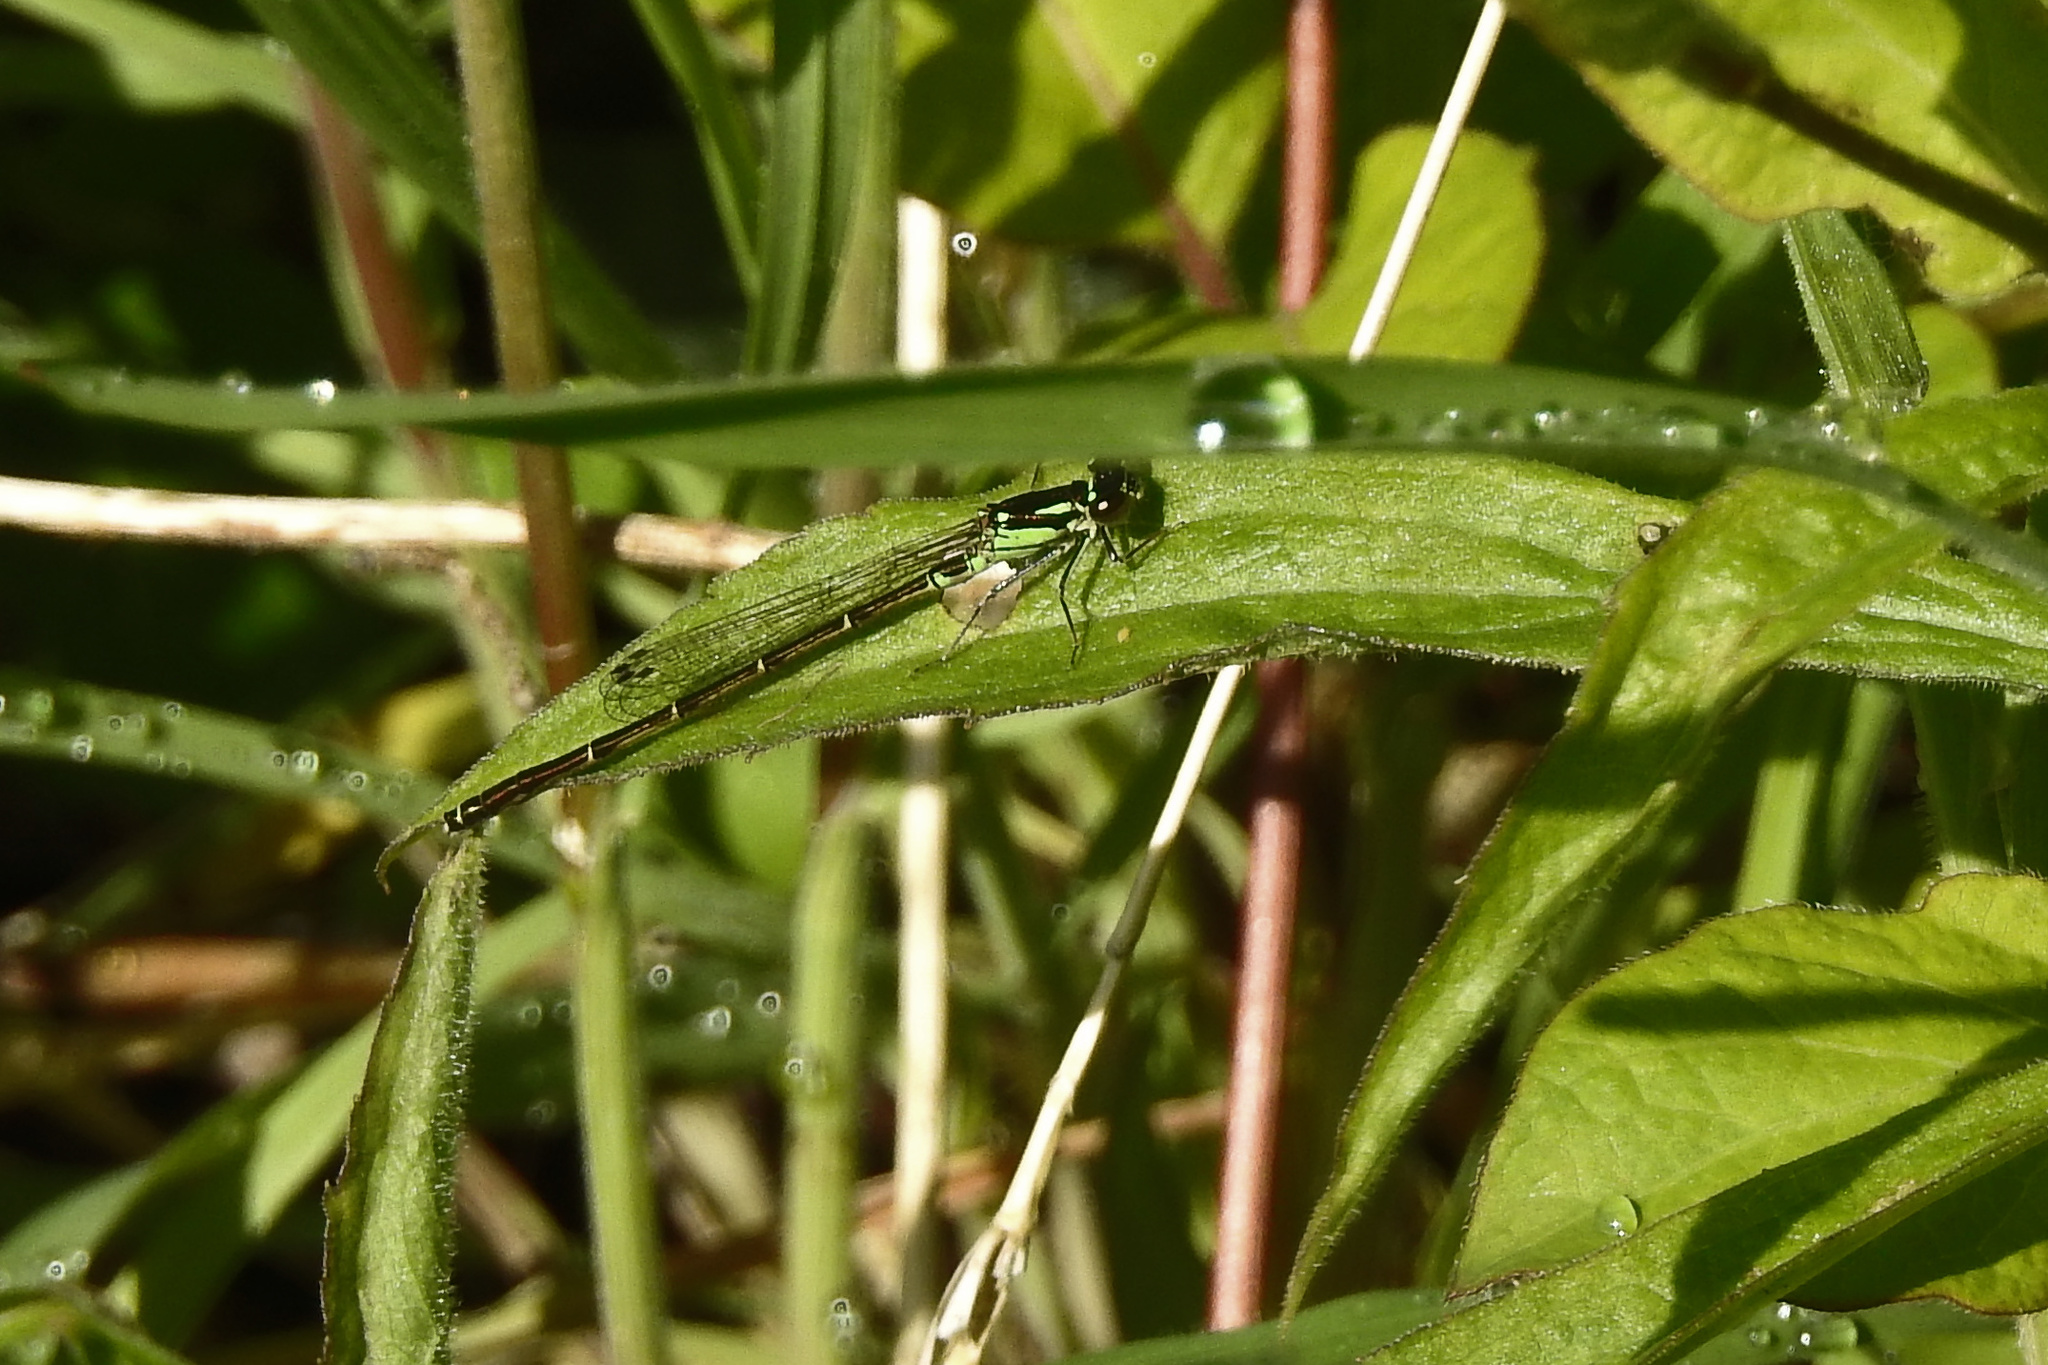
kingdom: Animalia
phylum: Arthropoda
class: Insecta
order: Odonata
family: Coenagrionidae
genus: Ischnura
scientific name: Ischnura posita
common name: Fragile forktail
